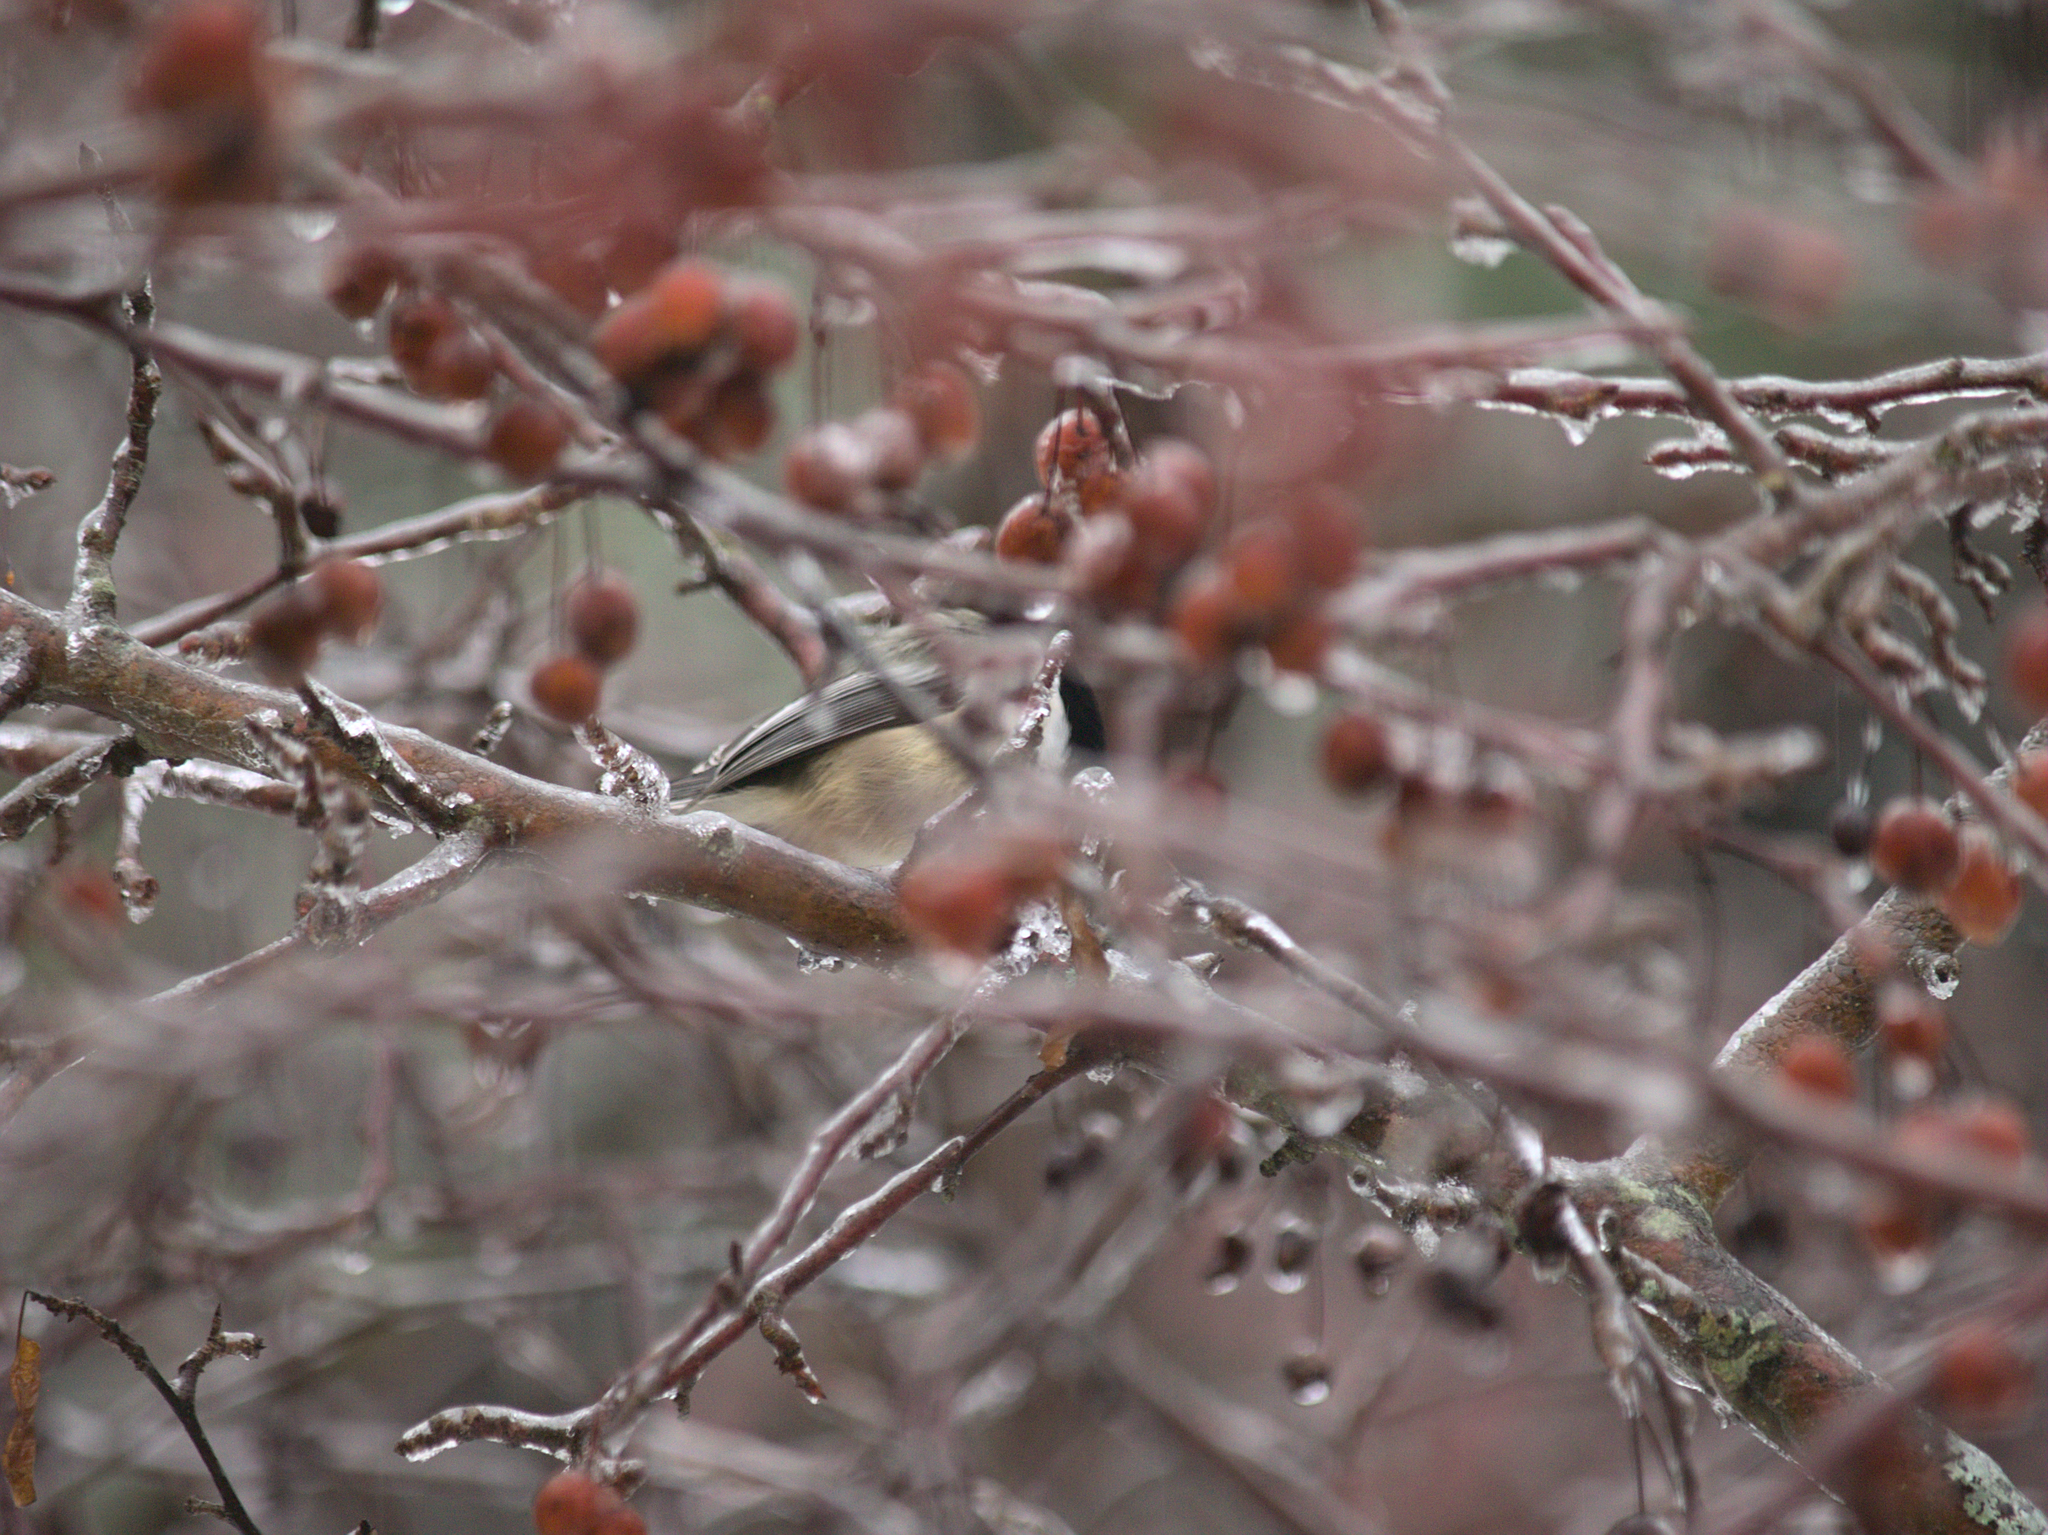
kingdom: Animalia
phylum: Chordata
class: Aves
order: Passeriformes
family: Paridae
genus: Poecile
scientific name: Poecile atricapillus
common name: Black-capped chickadee
